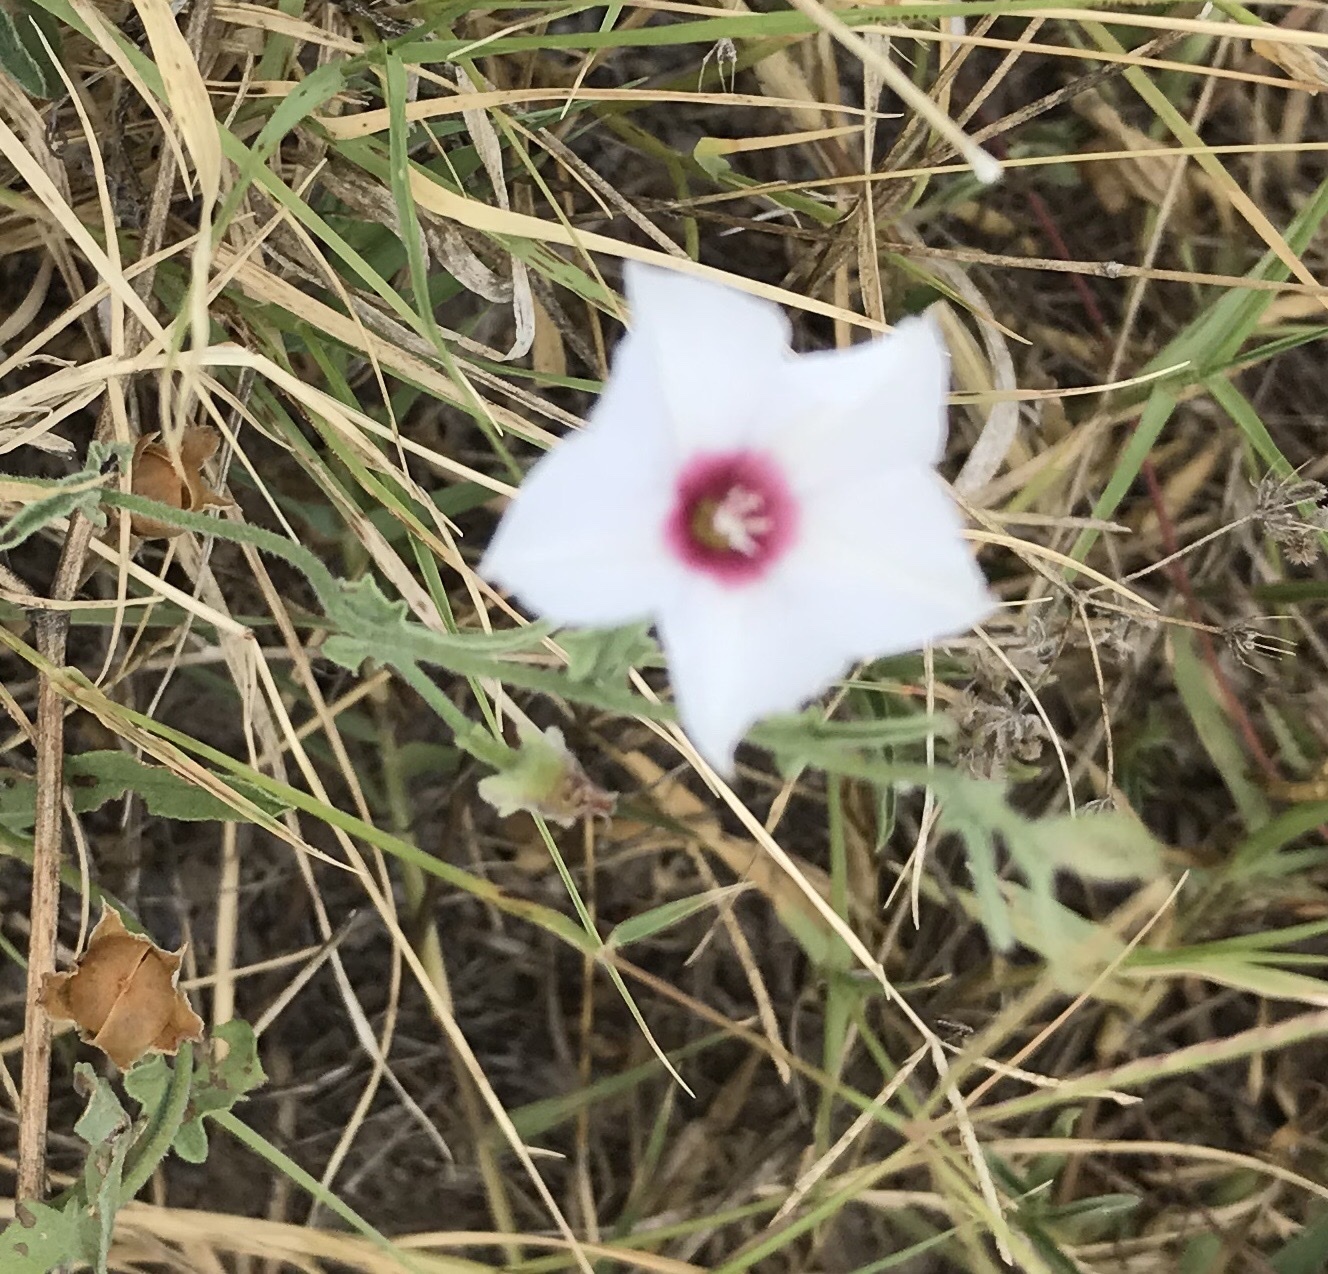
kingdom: Plantae
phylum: Tracheophyta
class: Magnoliopsida
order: Solanales
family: Convolvulaceae
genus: Convolvulus
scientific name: Convolvulus equitans
